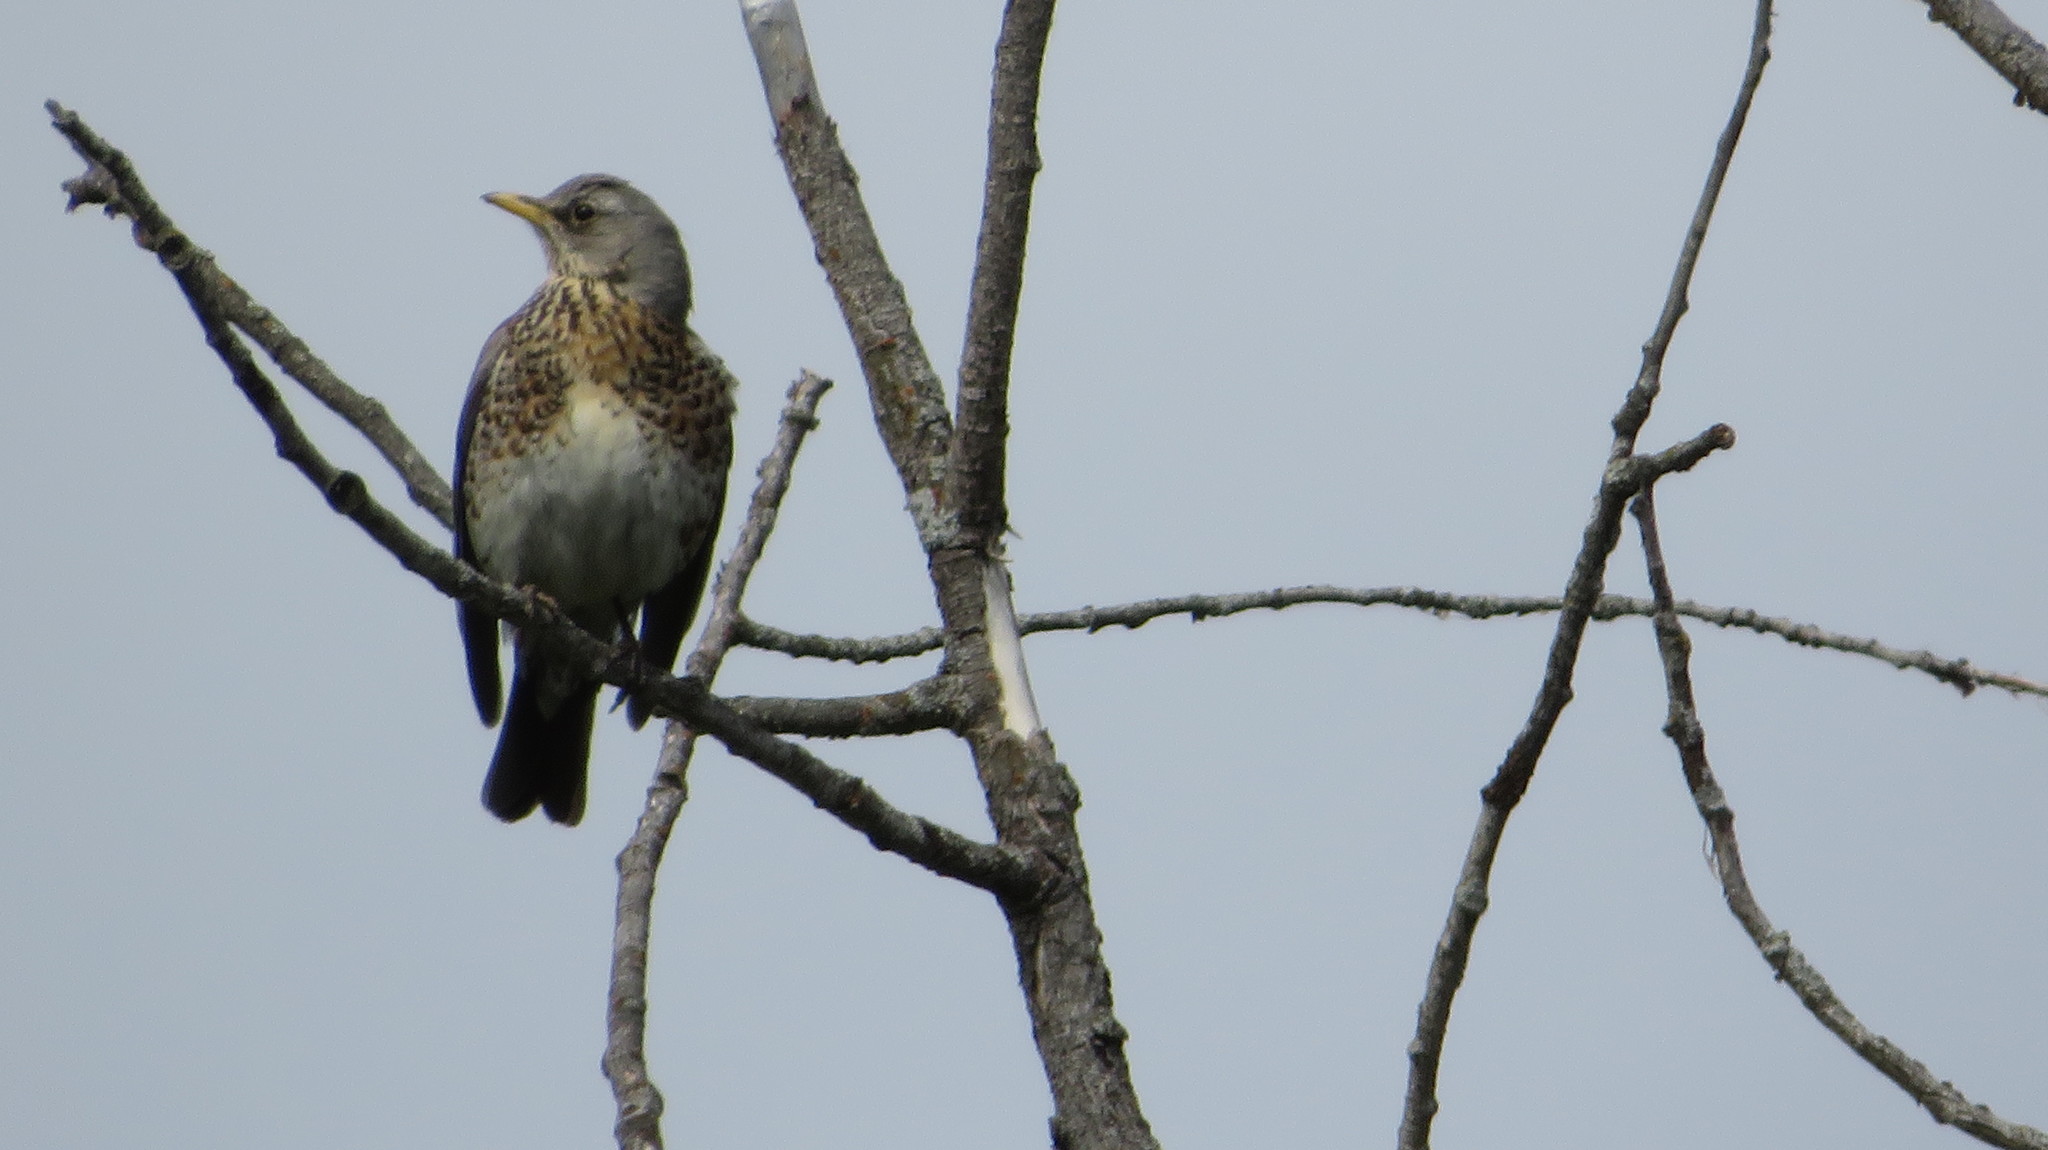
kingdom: Animalia
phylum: Chordata
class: Aves
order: Passeriformes
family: Turdidae
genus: Turdus
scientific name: Turdus pilaris
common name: Fieldfare
